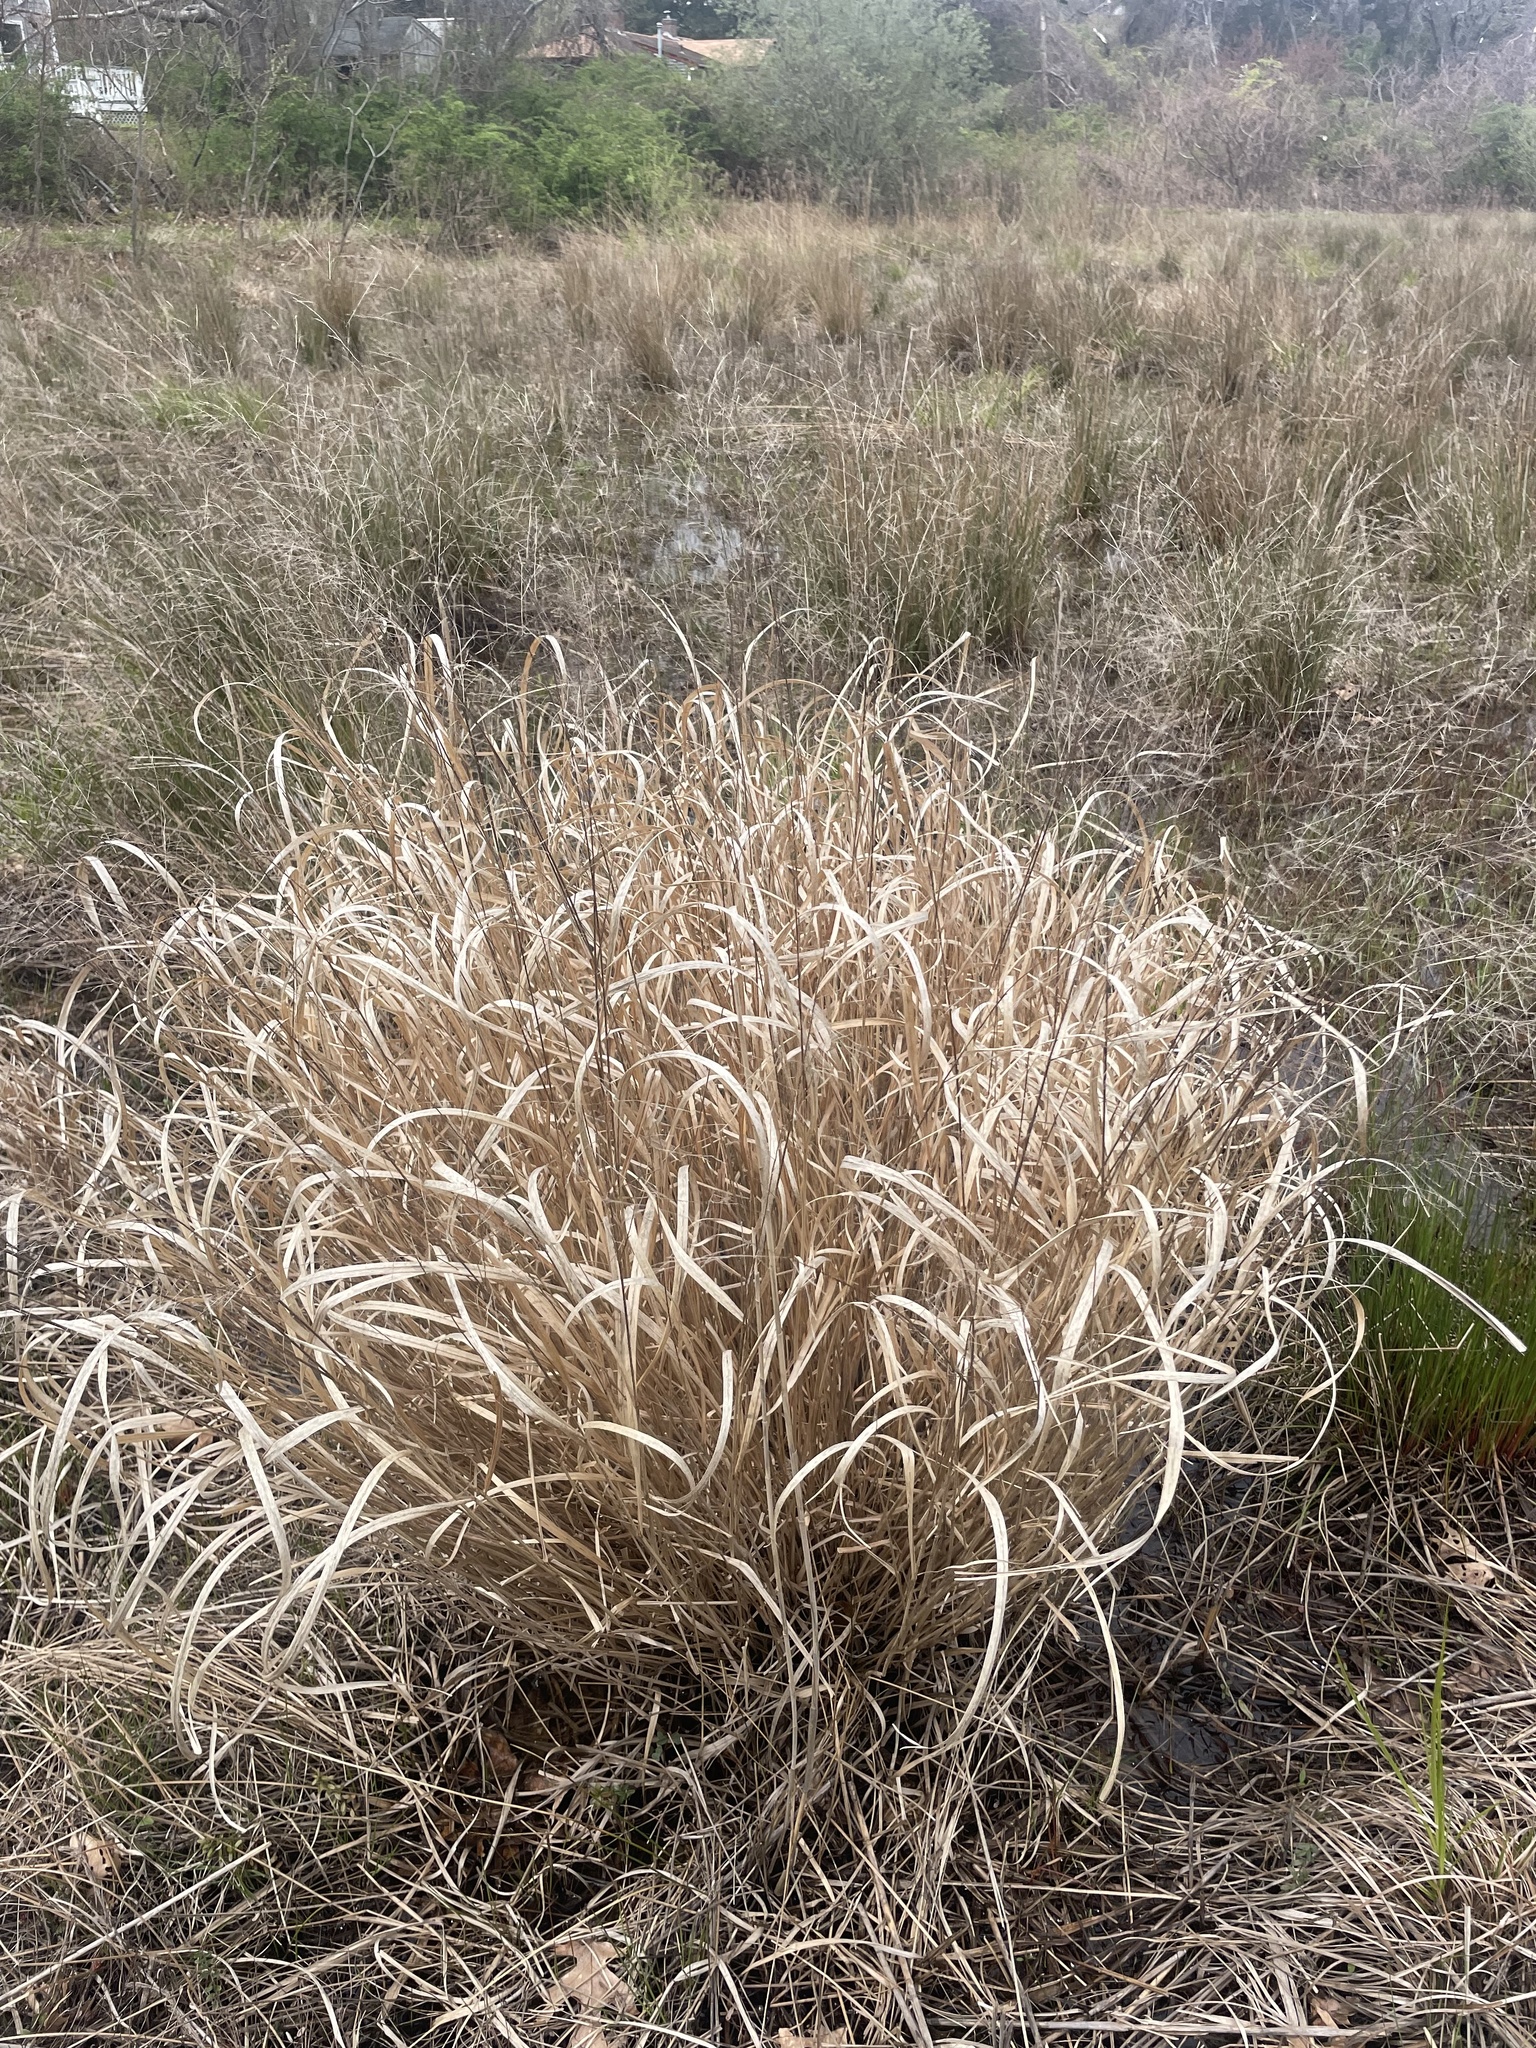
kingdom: Plantae
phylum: Tracheophyta
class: Liliopsida
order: Poales
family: Poaceae
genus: Panicum
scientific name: Panicum virgatum
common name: Switchgrass
